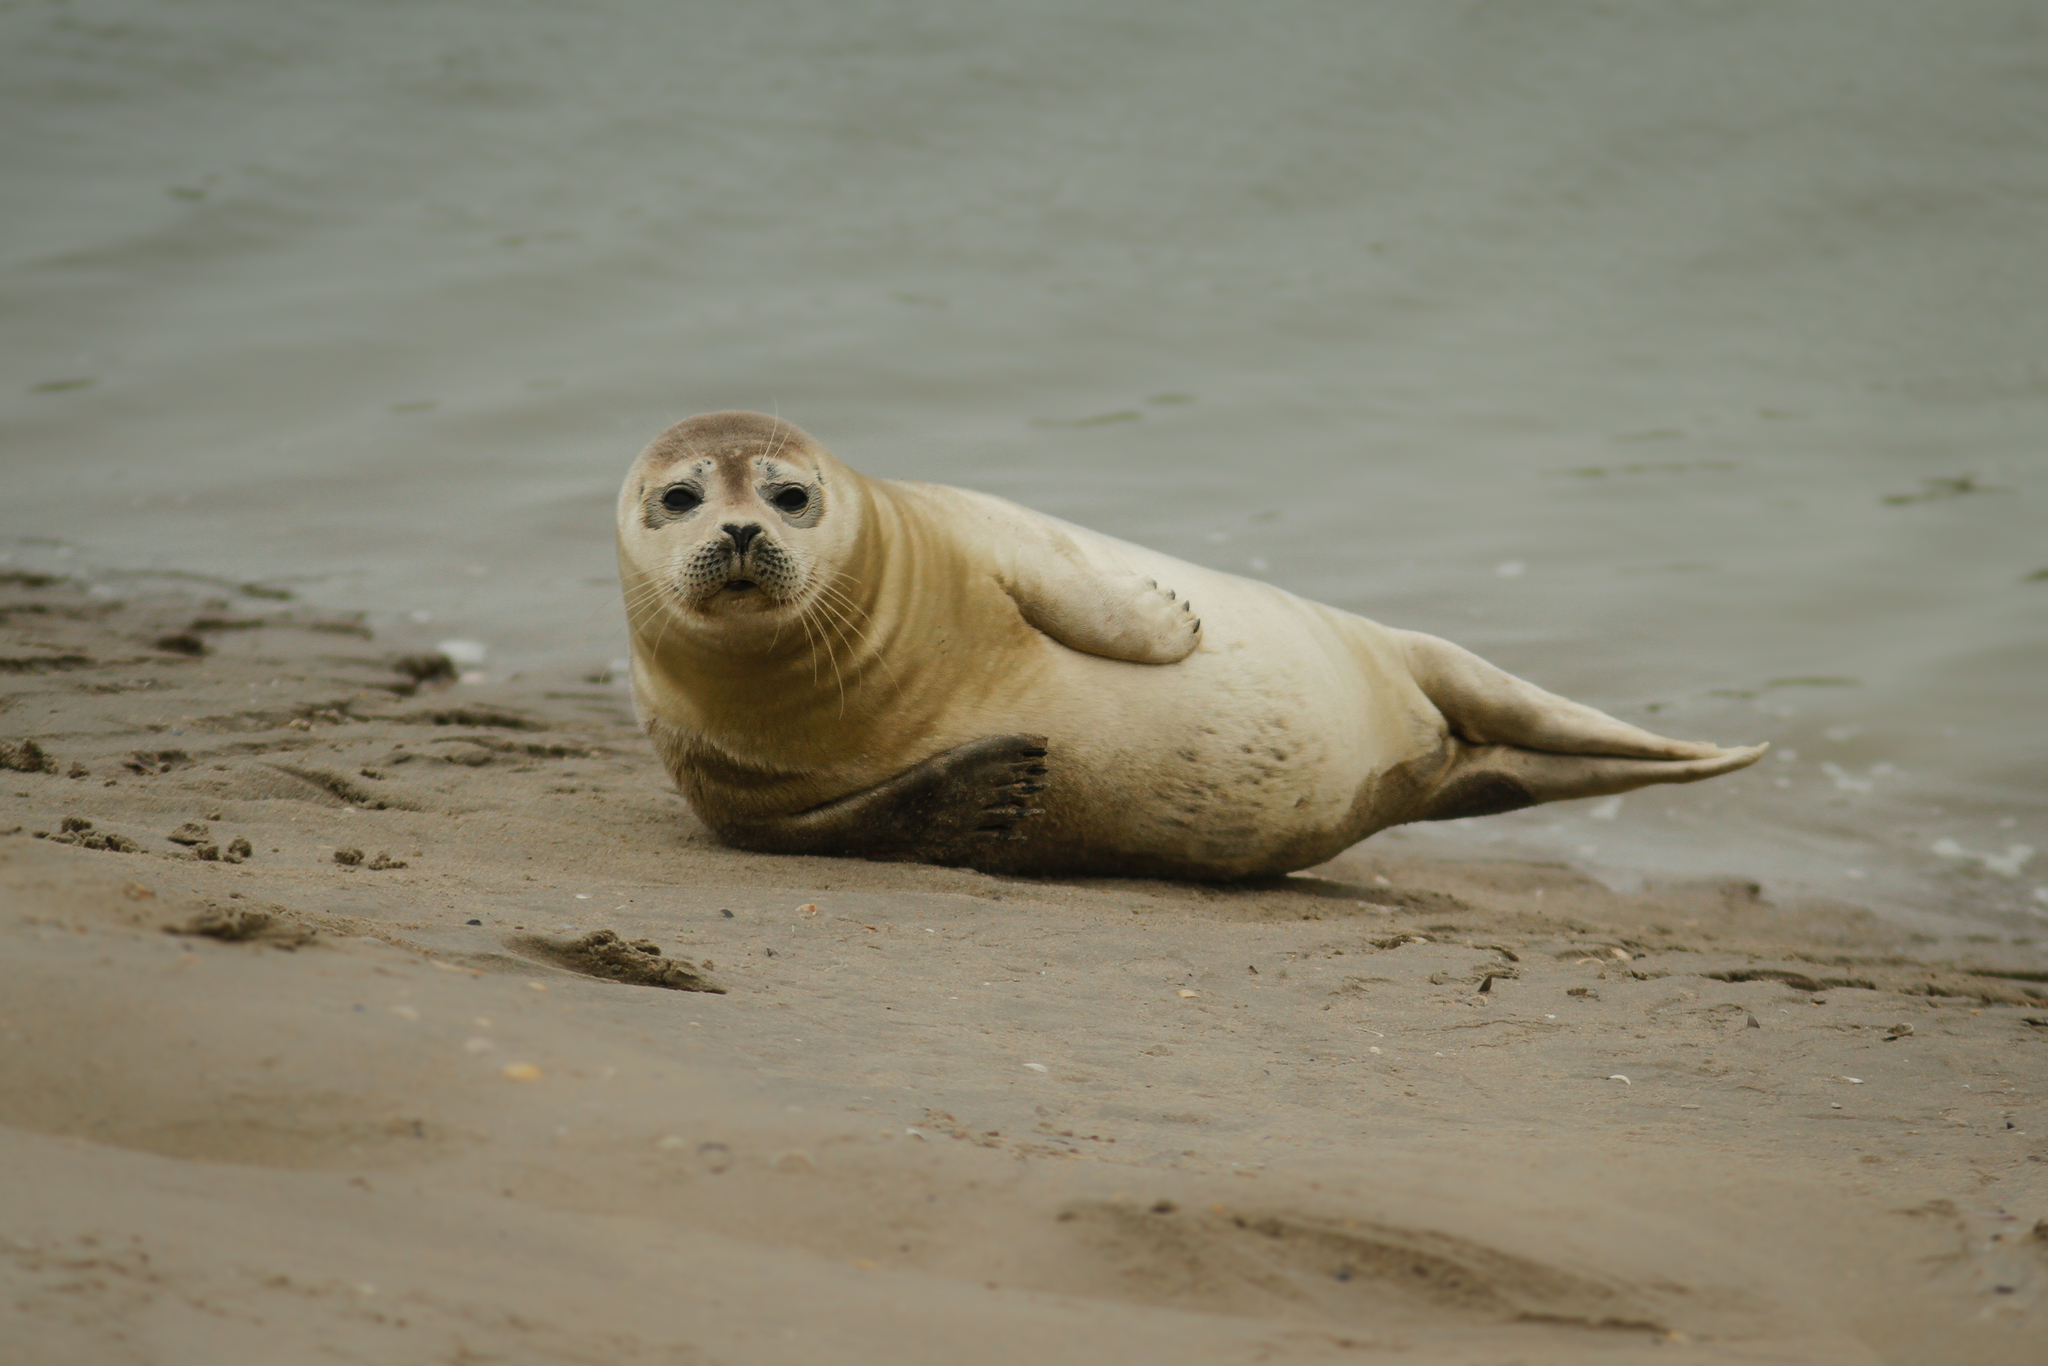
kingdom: Animalia
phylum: Chordata
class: Mammalia
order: Carnivora
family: Phocidae
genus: Phoca
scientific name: Phoca vitulina
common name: Harbor seal
